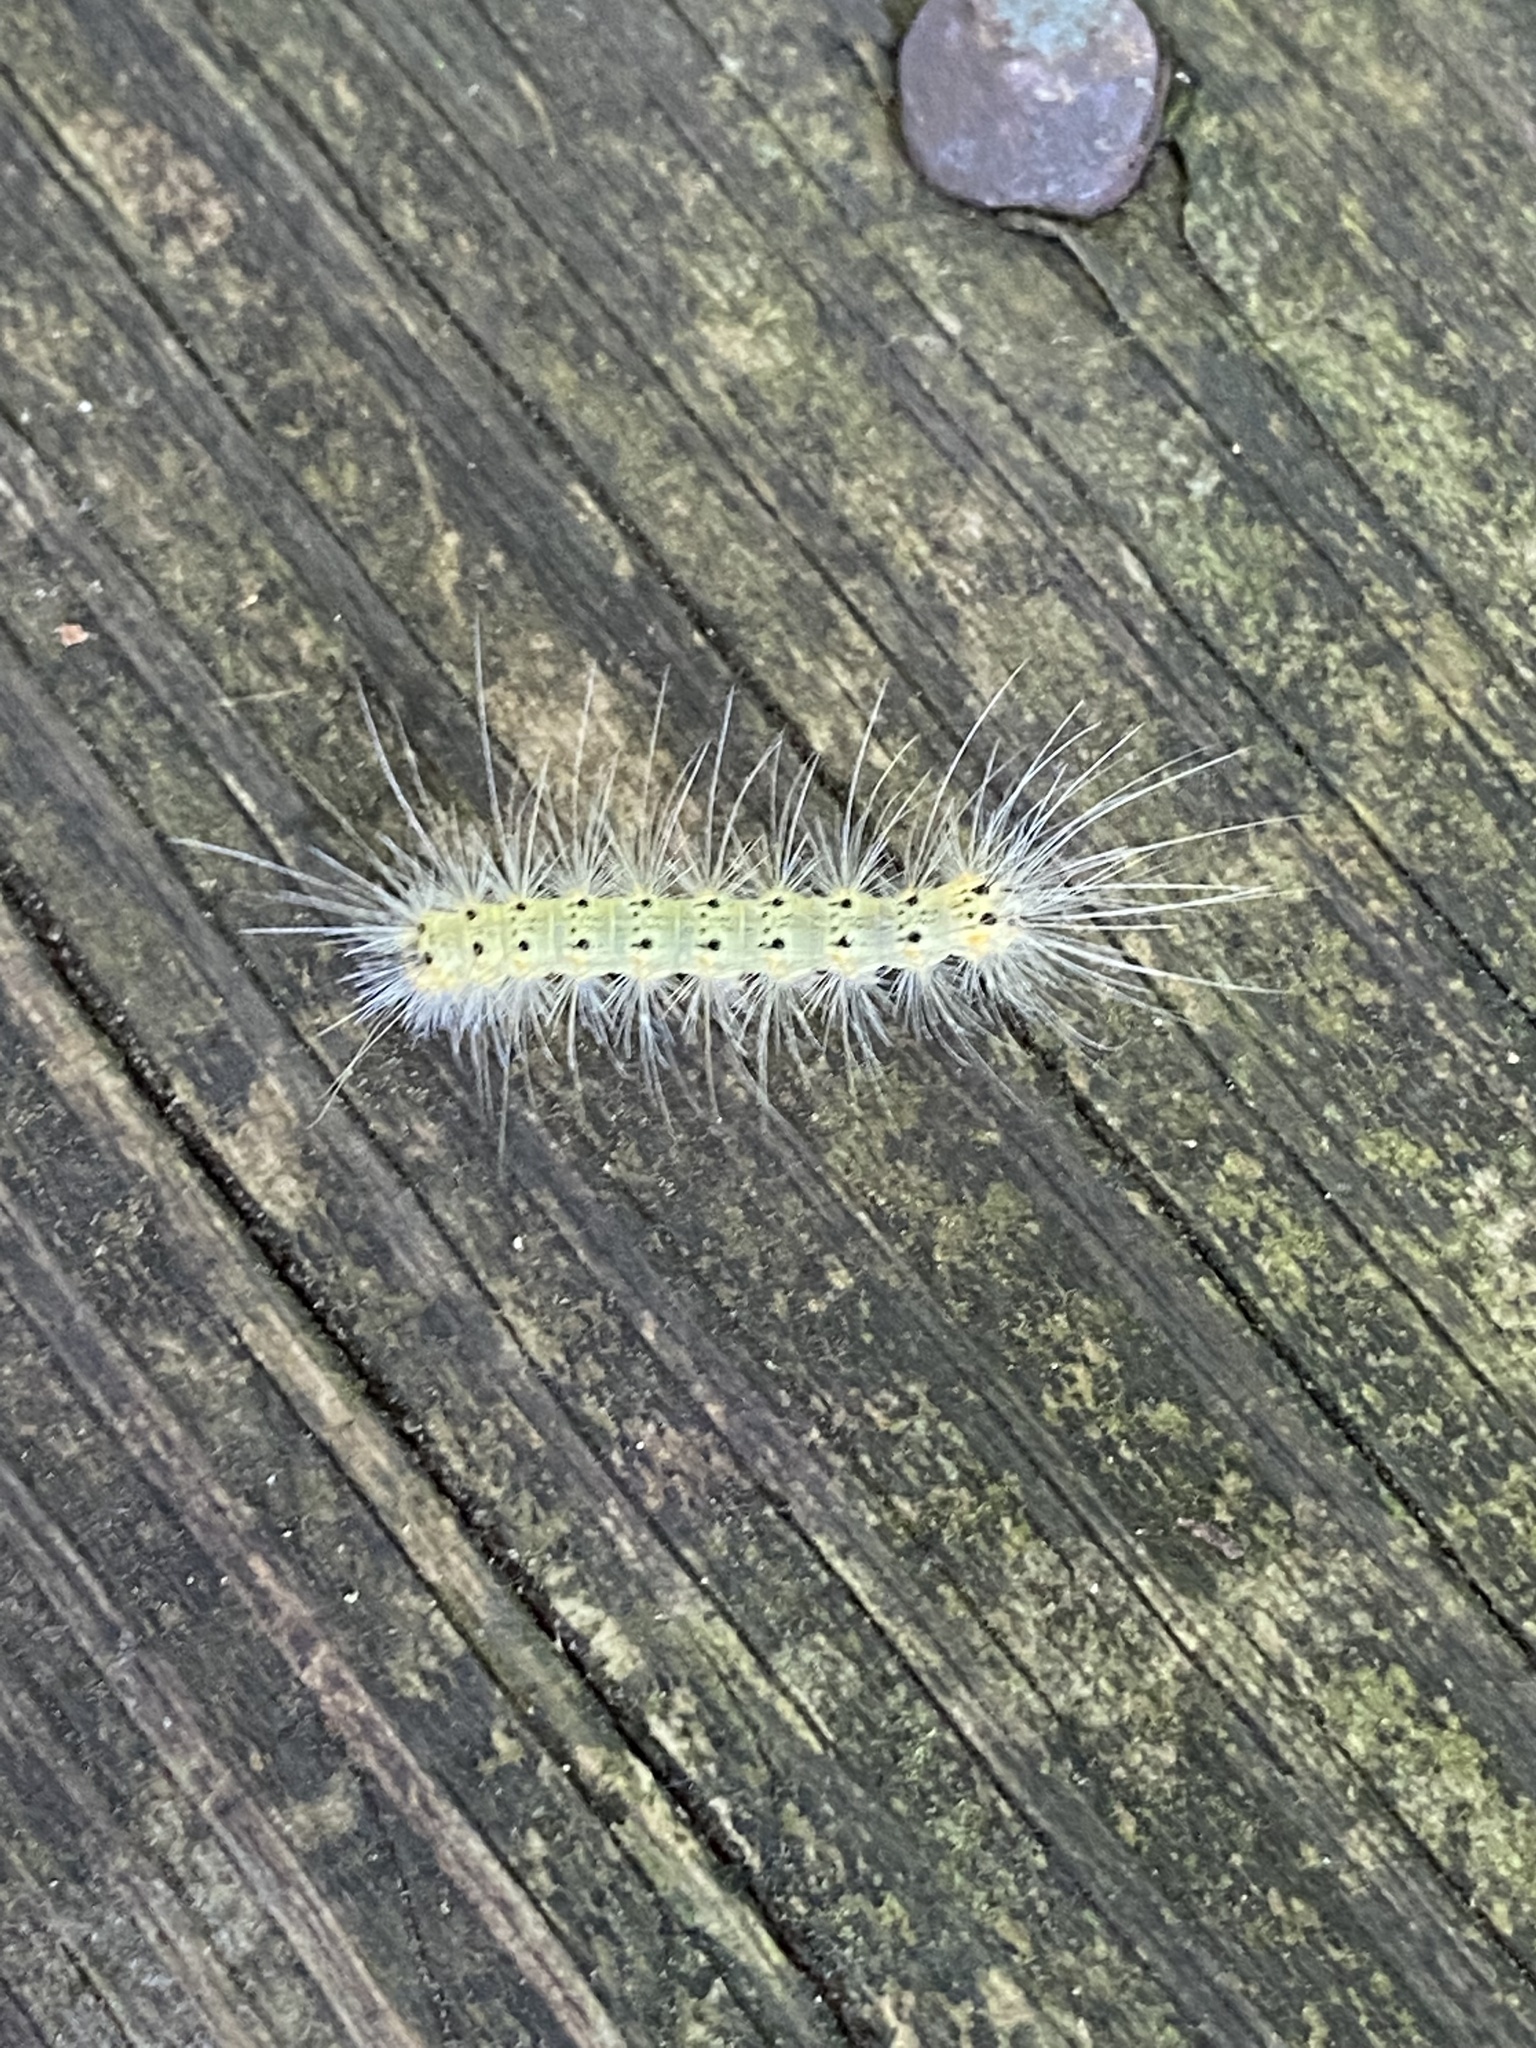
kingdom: Animalia
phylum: Arthropoda
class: Insecta
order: Lepidoptera
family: Erebidae
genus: Hyphantria
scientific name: Hyphantria cunea
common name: American white moth
